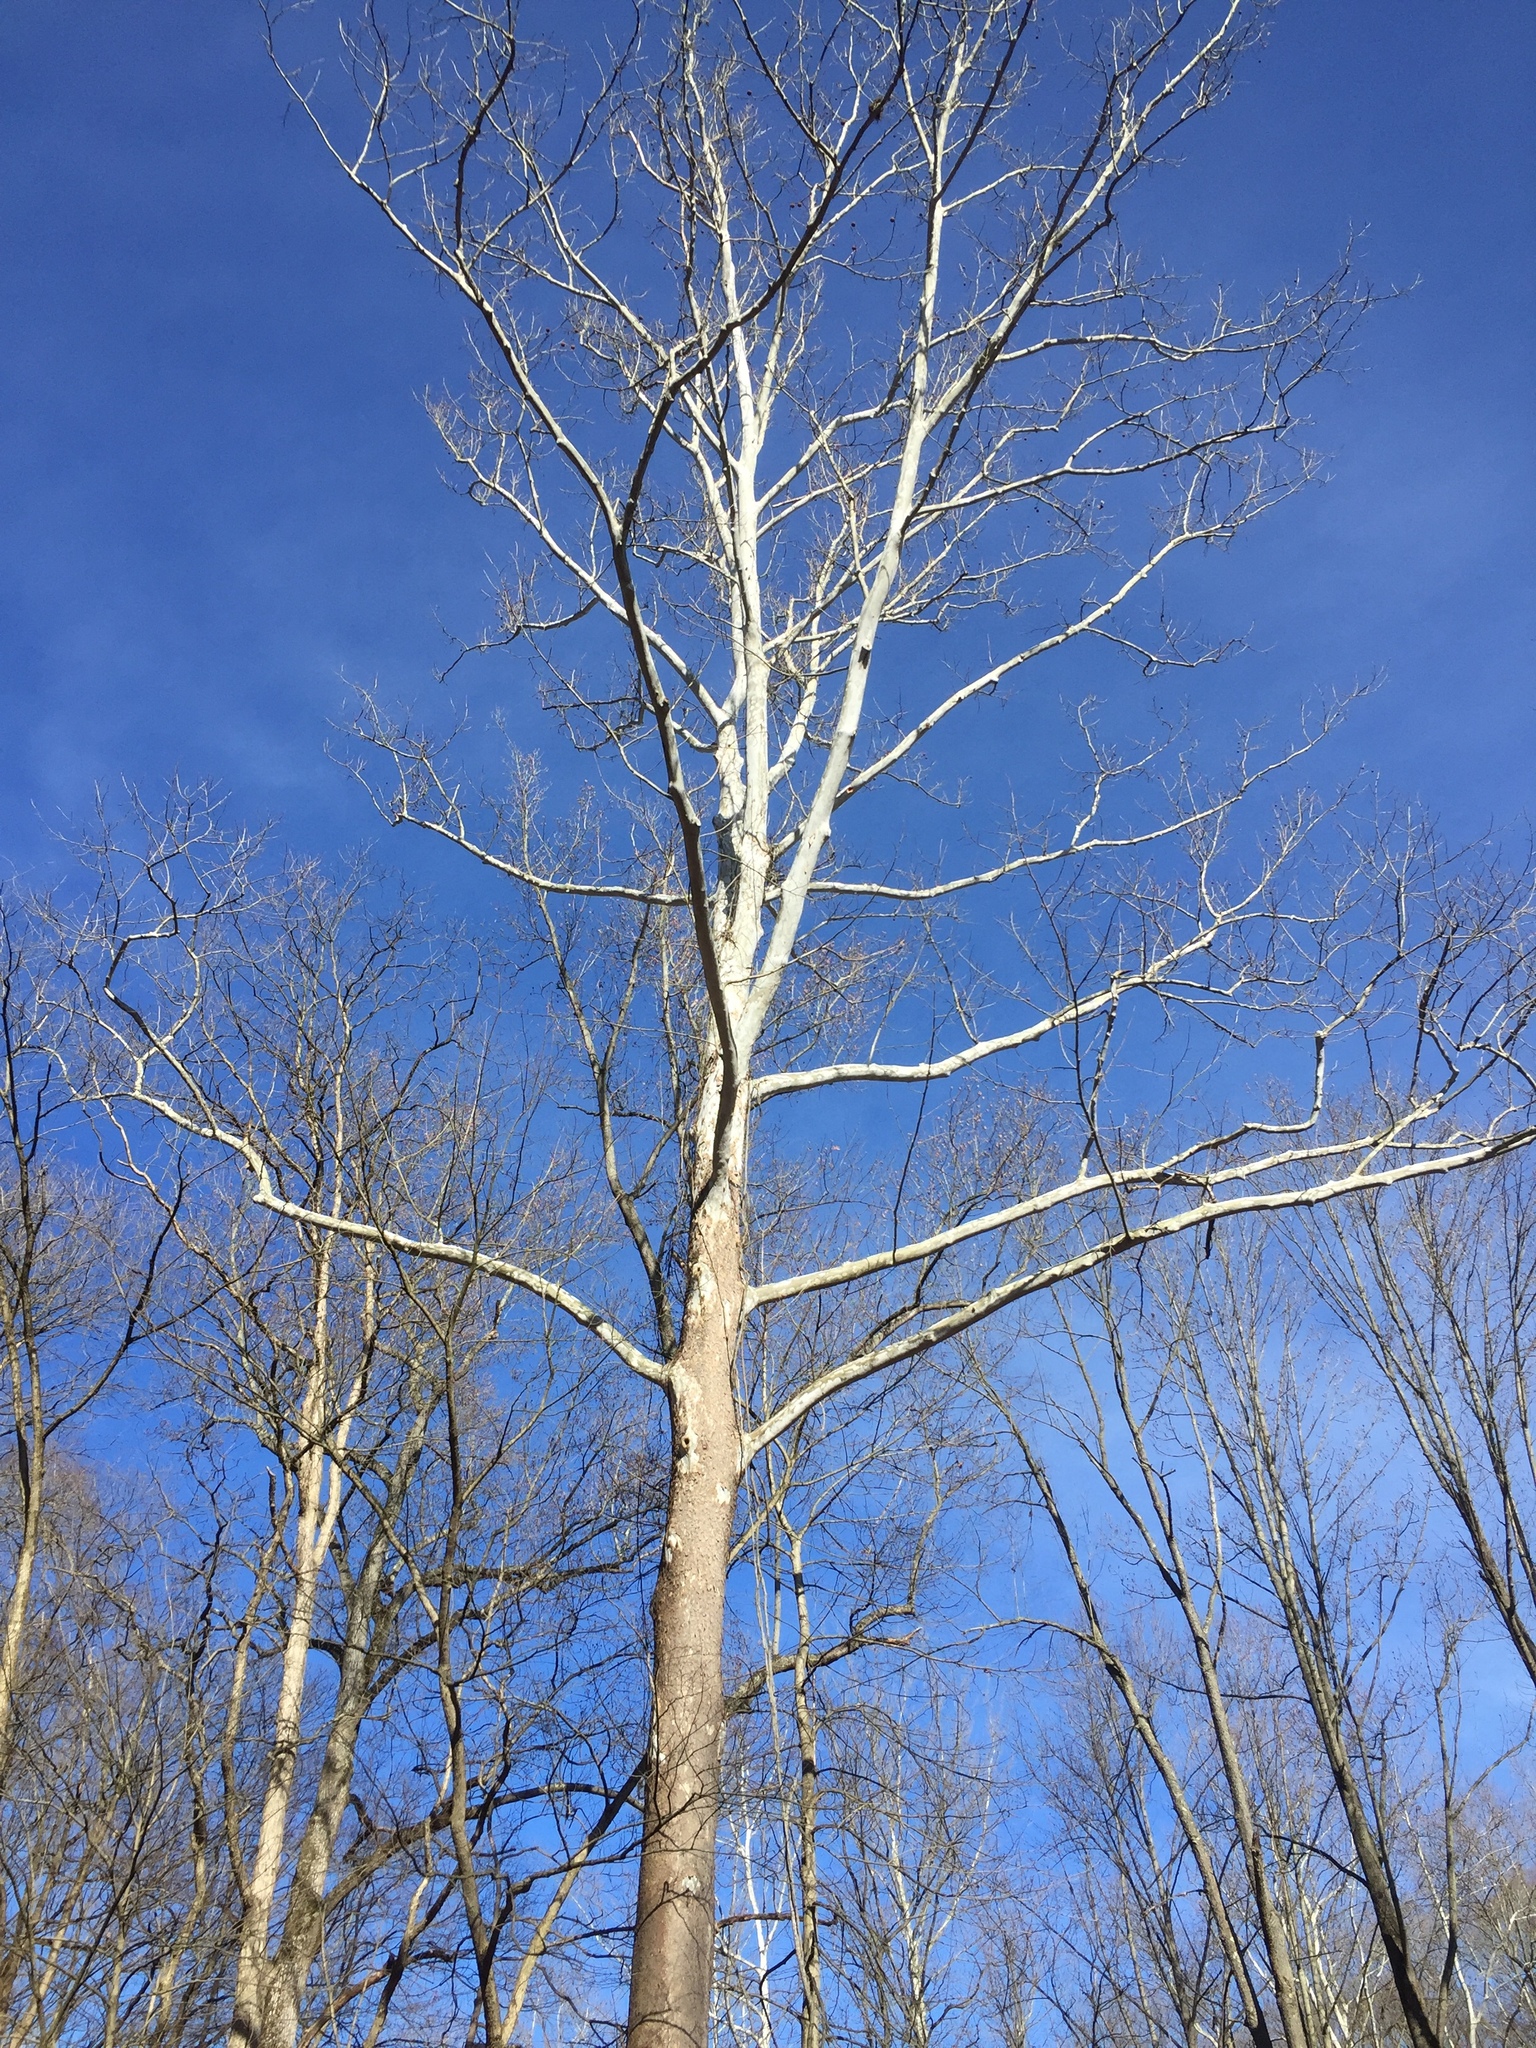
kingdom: Plantae
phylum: Tracheophyta
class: Magnoliopsida
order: Proteales
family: Platanaceae
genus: Platanus
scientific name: Platanus occidentalis
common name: American sycamore
